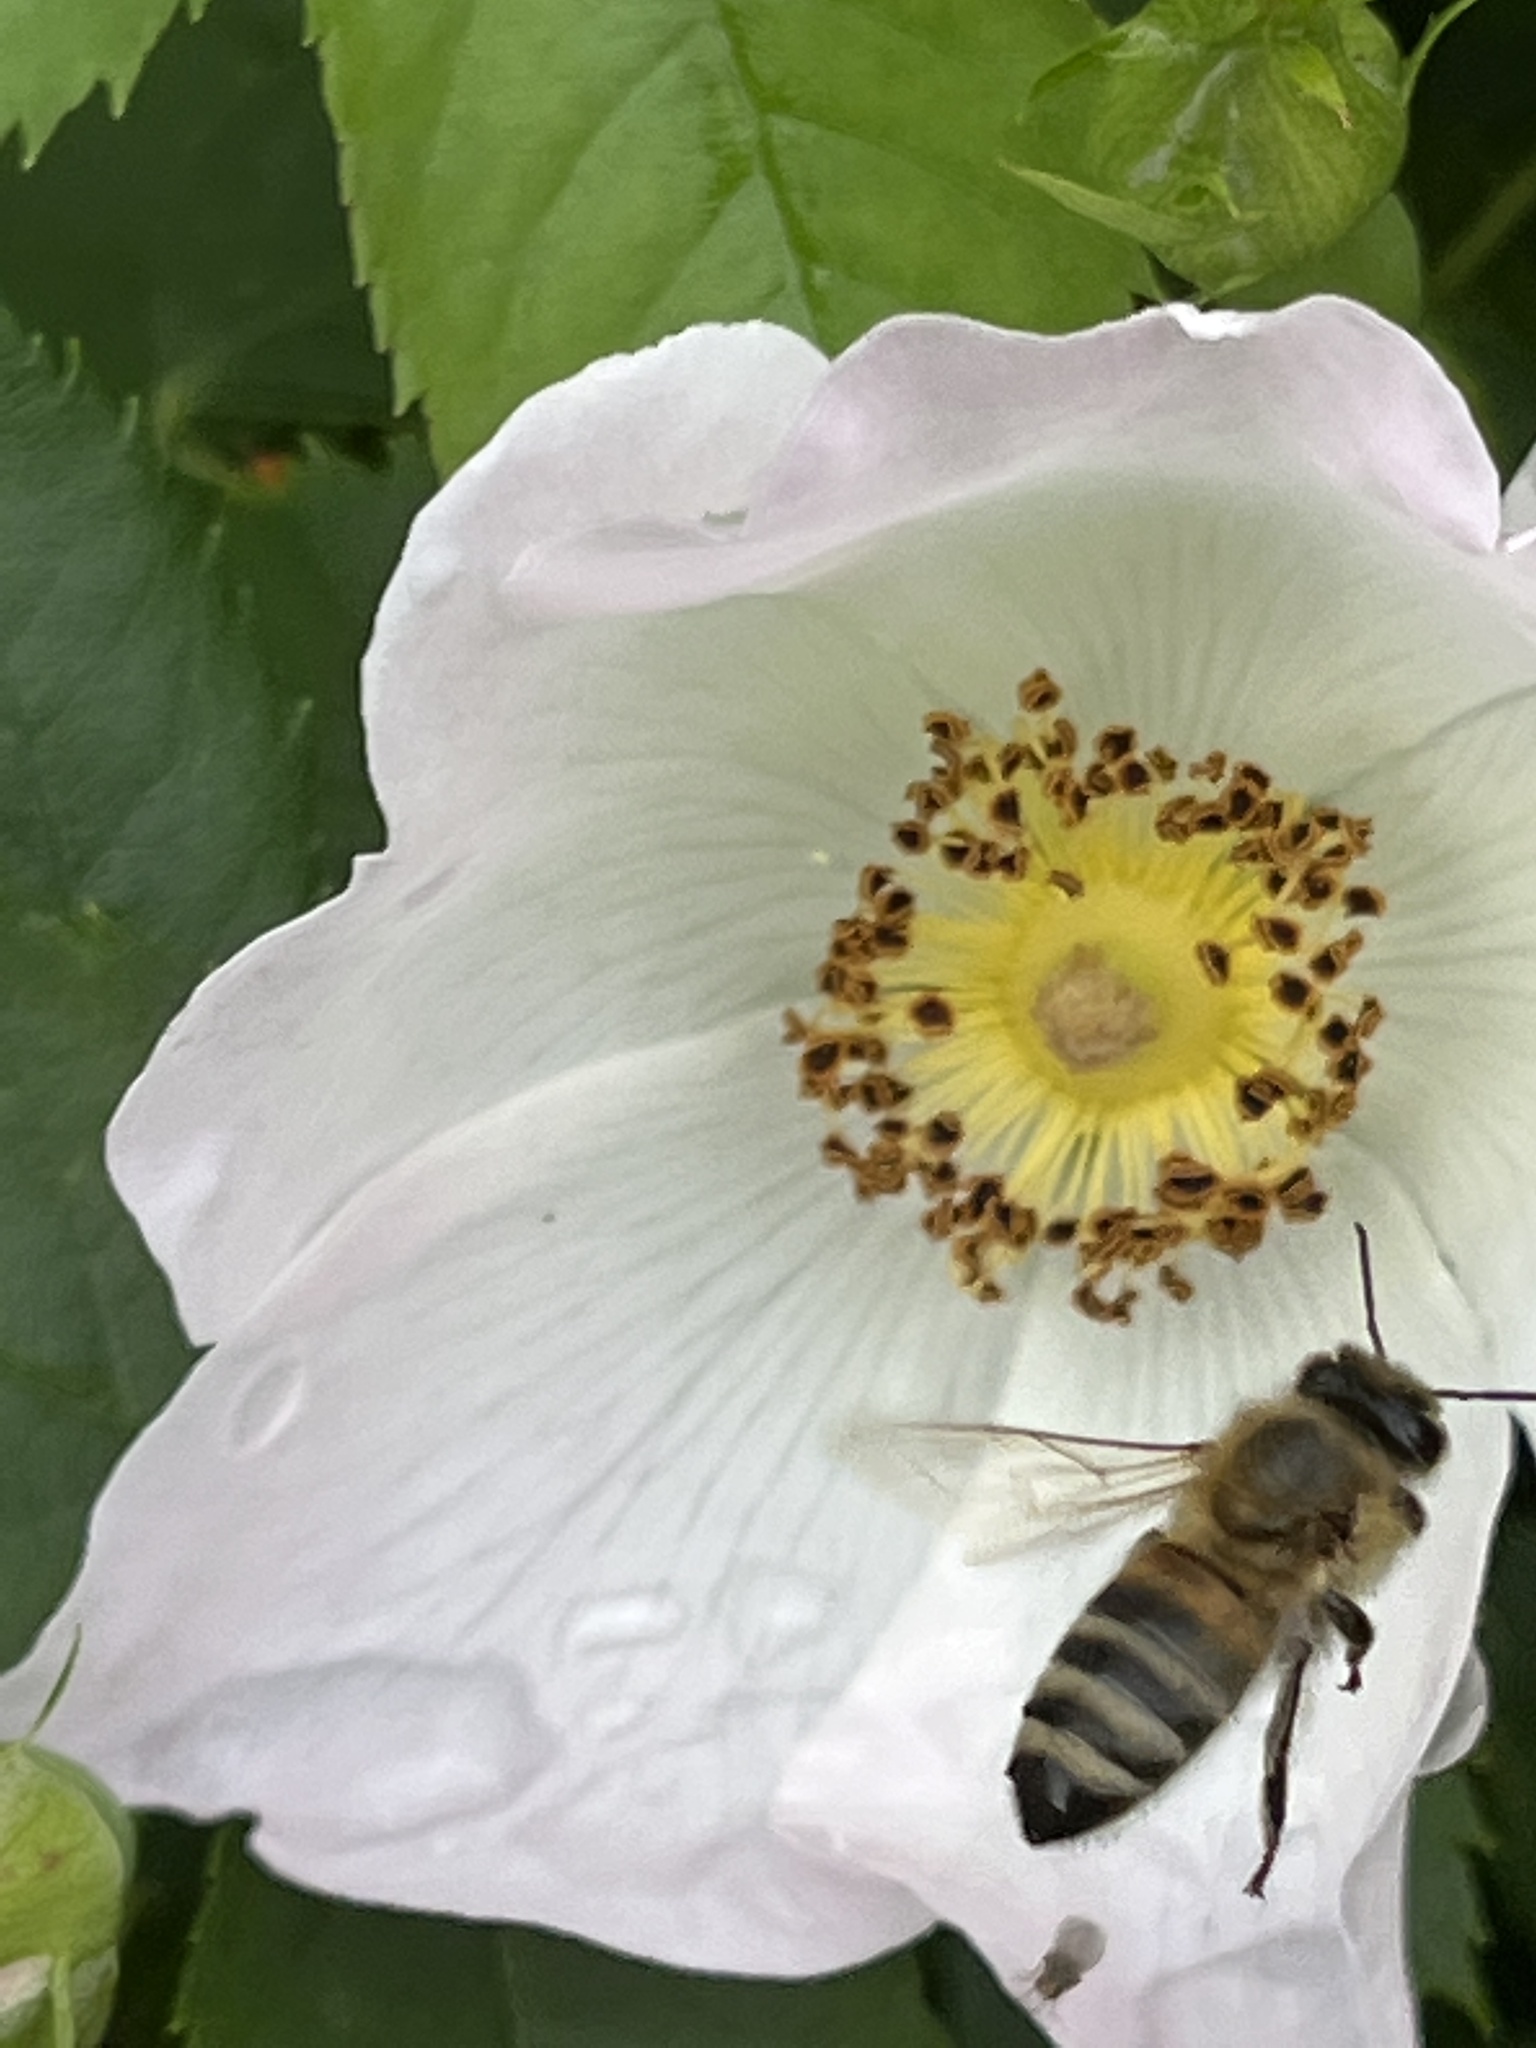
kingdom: Animalia
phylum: Arthropoda
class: Insecta
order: Hymenoptera
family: Apidae
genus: Apis
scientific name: Apis mellifera
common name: Honey bee
